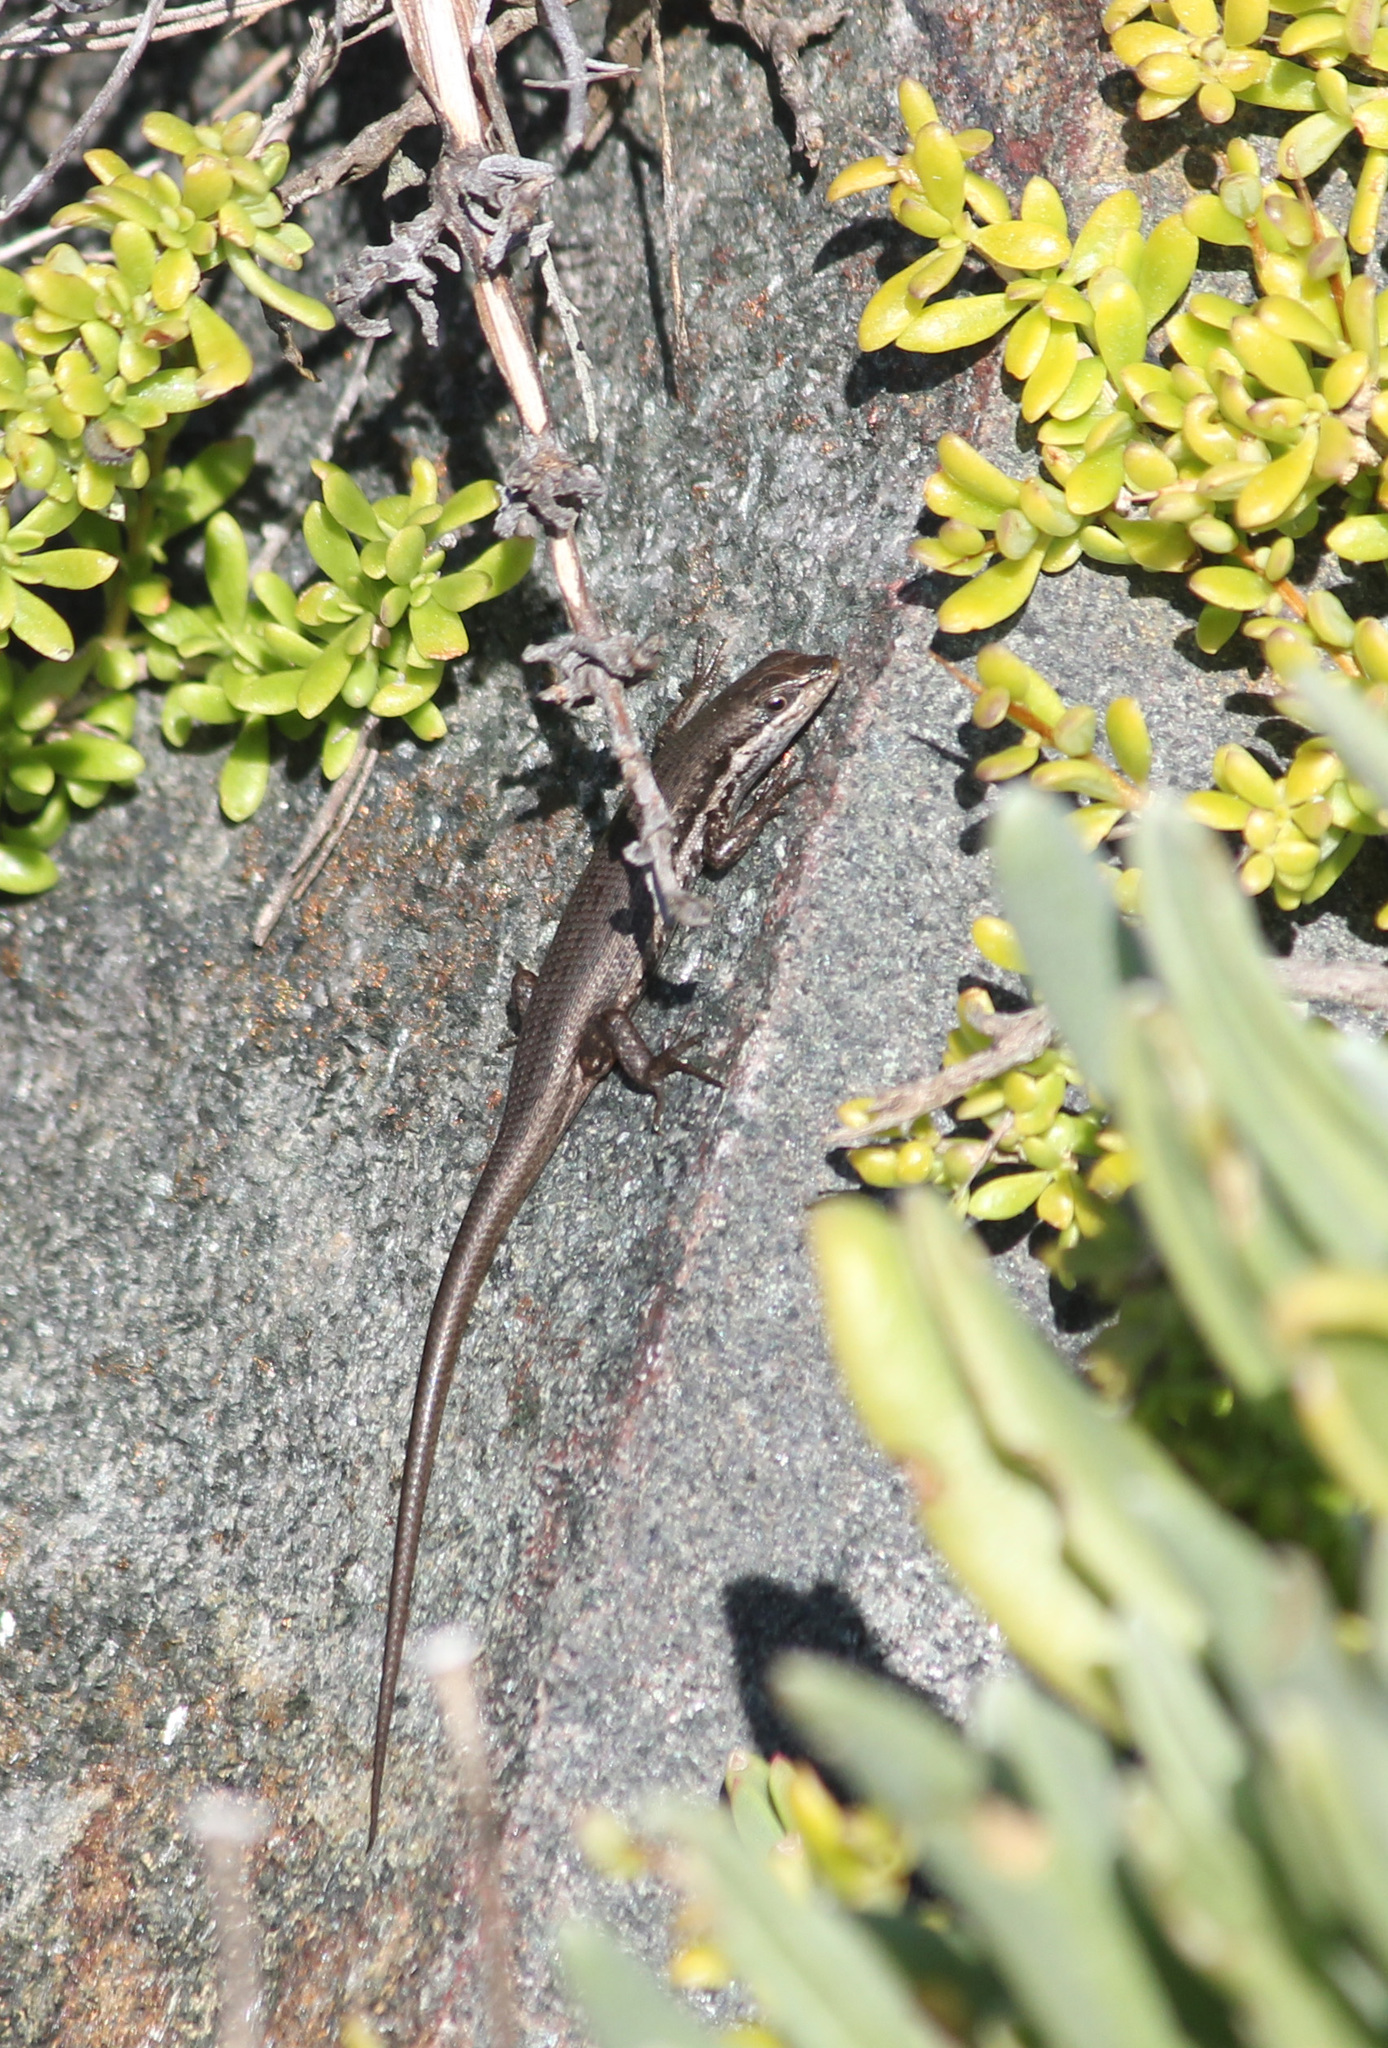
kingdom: Animalia
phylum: Chordata
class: Squamata
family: Scincidae
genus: Trachylepis
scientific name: Trachylepis homalocephala
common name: Red-sided skink
